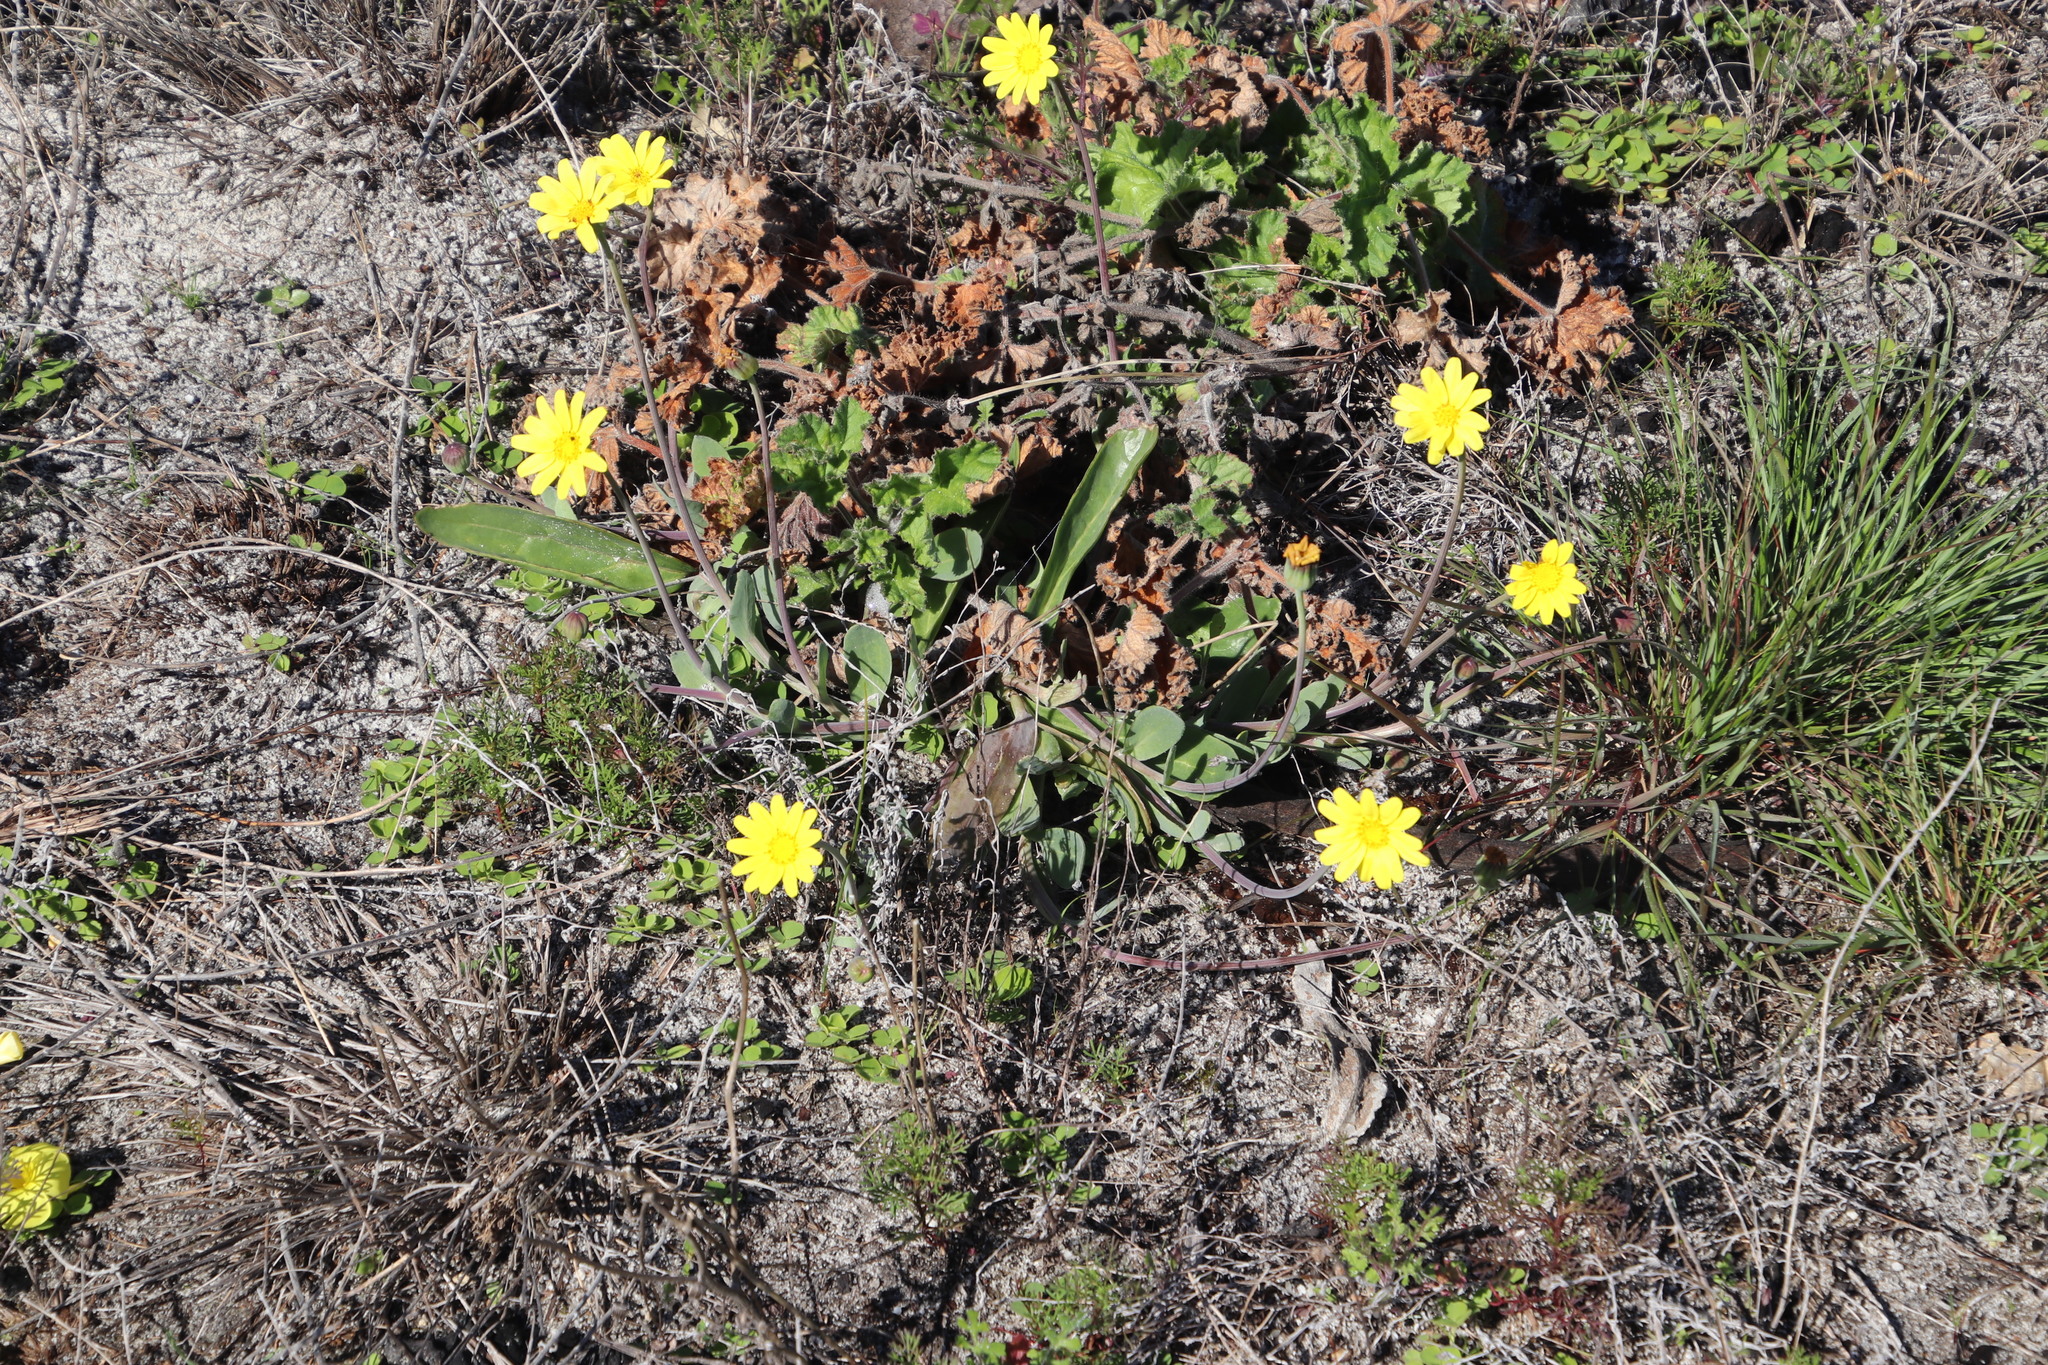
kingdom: Plantae
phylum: Tracheophyta
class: Magnoliopsida
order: Asterales
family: Asteraceae
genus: Othonna
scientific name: Othonna bulbosa
